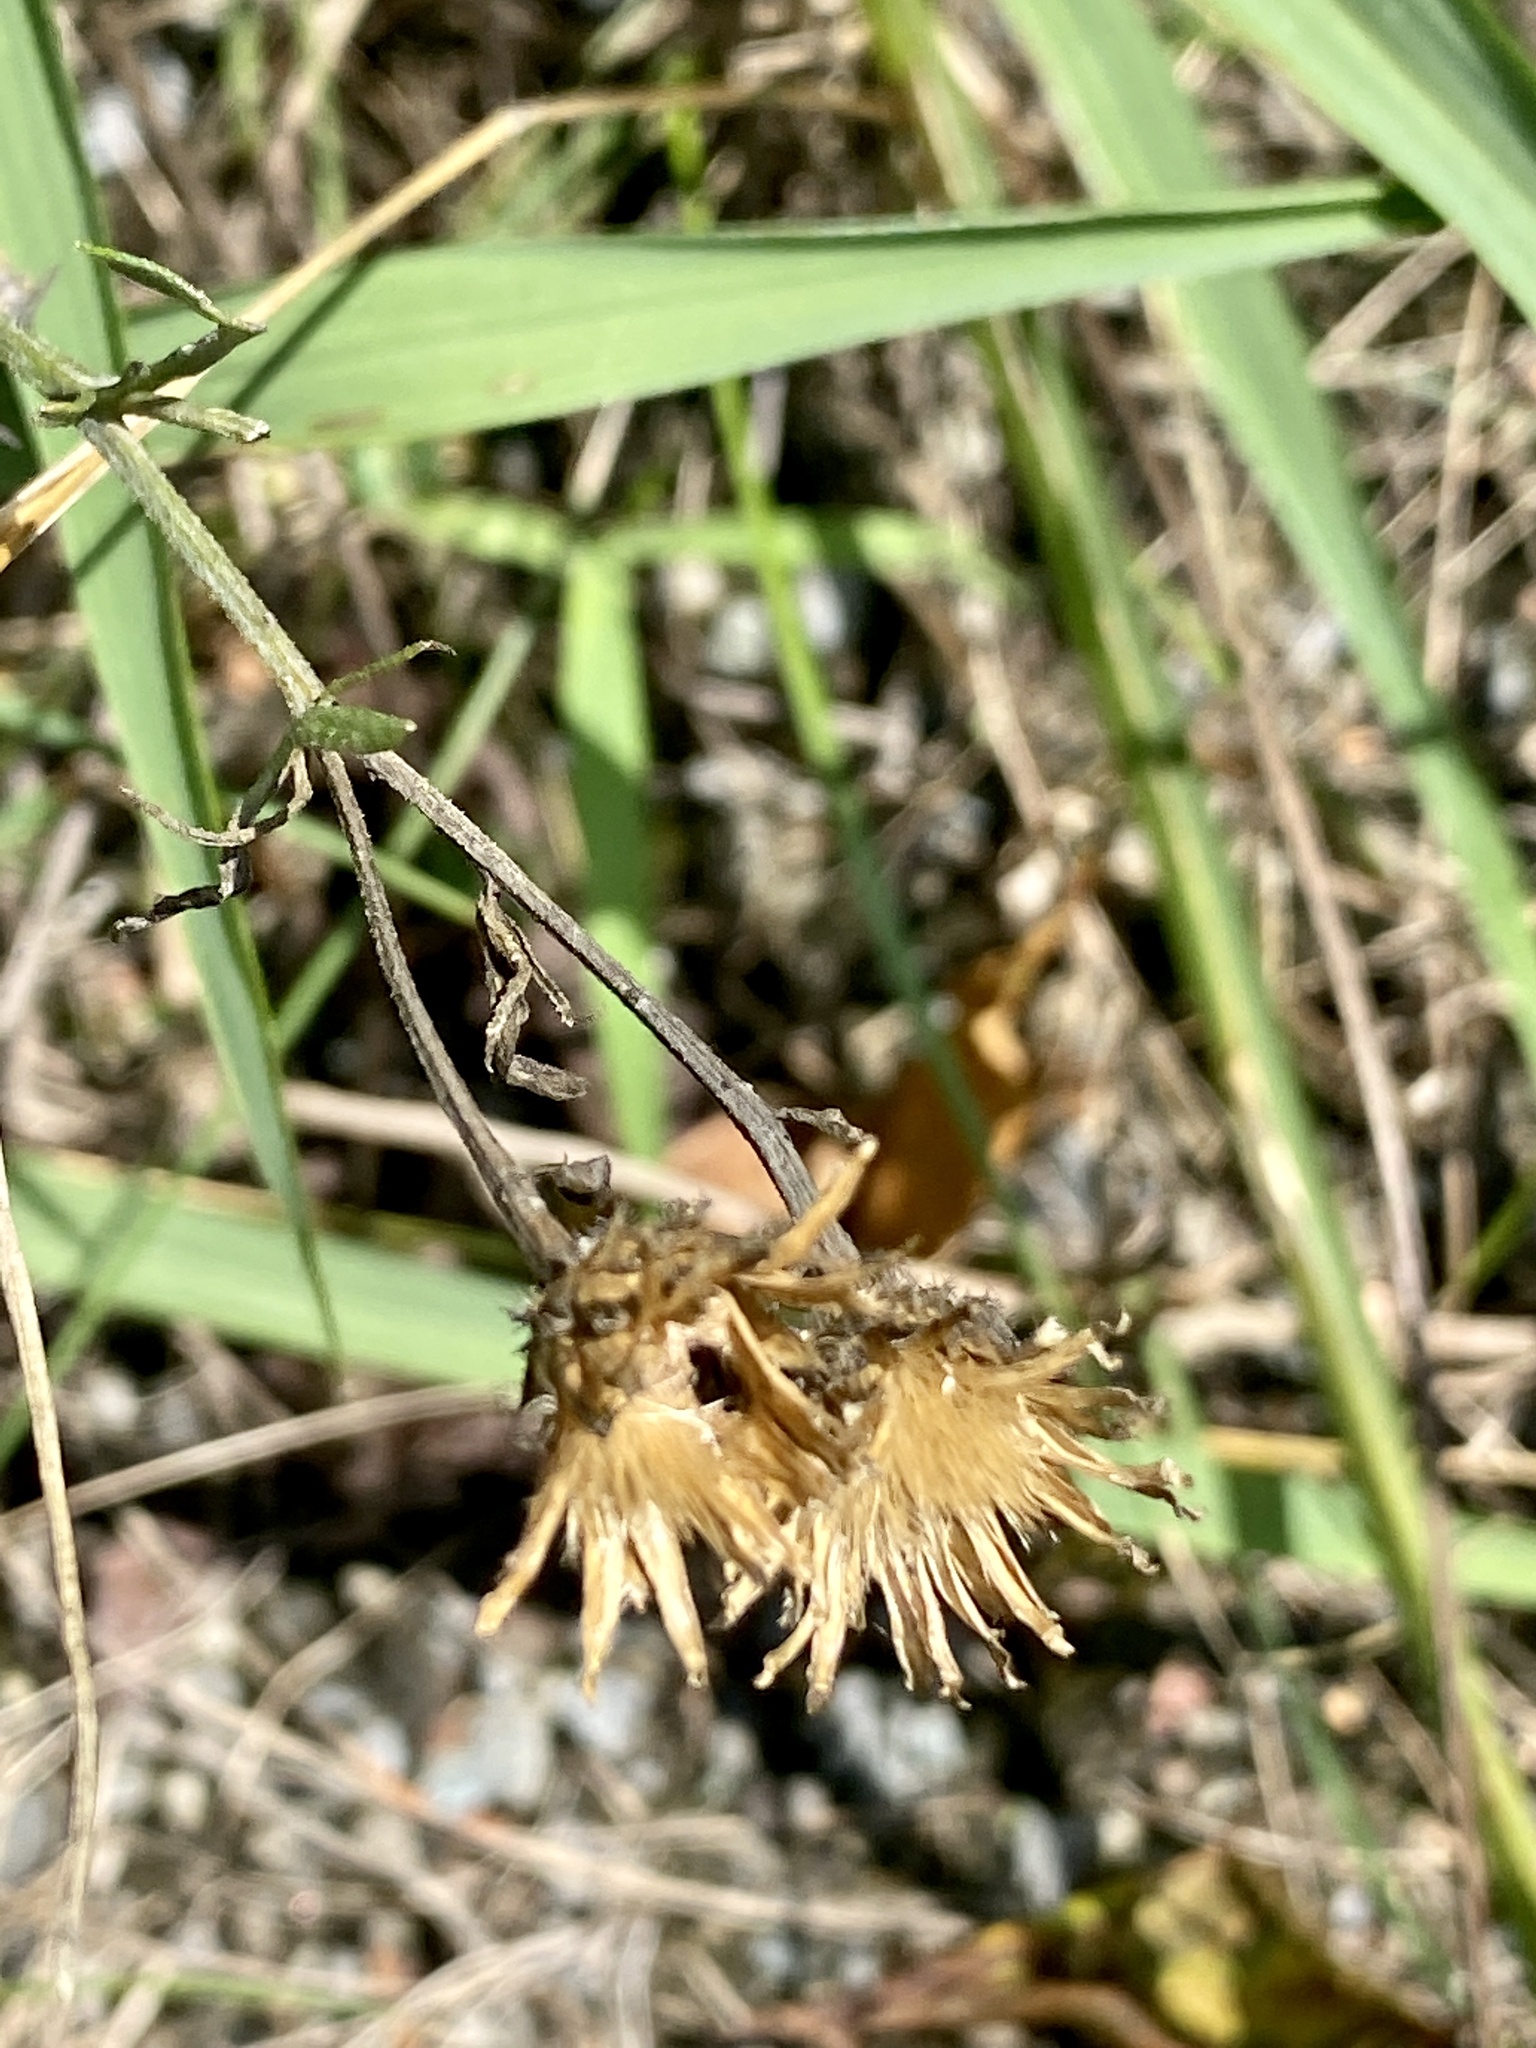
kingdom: Plantae
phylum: Tracheophyta
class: Magnoliopsida
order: Asterales
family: Asteraceae
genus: Centaurea
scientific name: Centaurea stoebe
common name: Spotted knapweed
